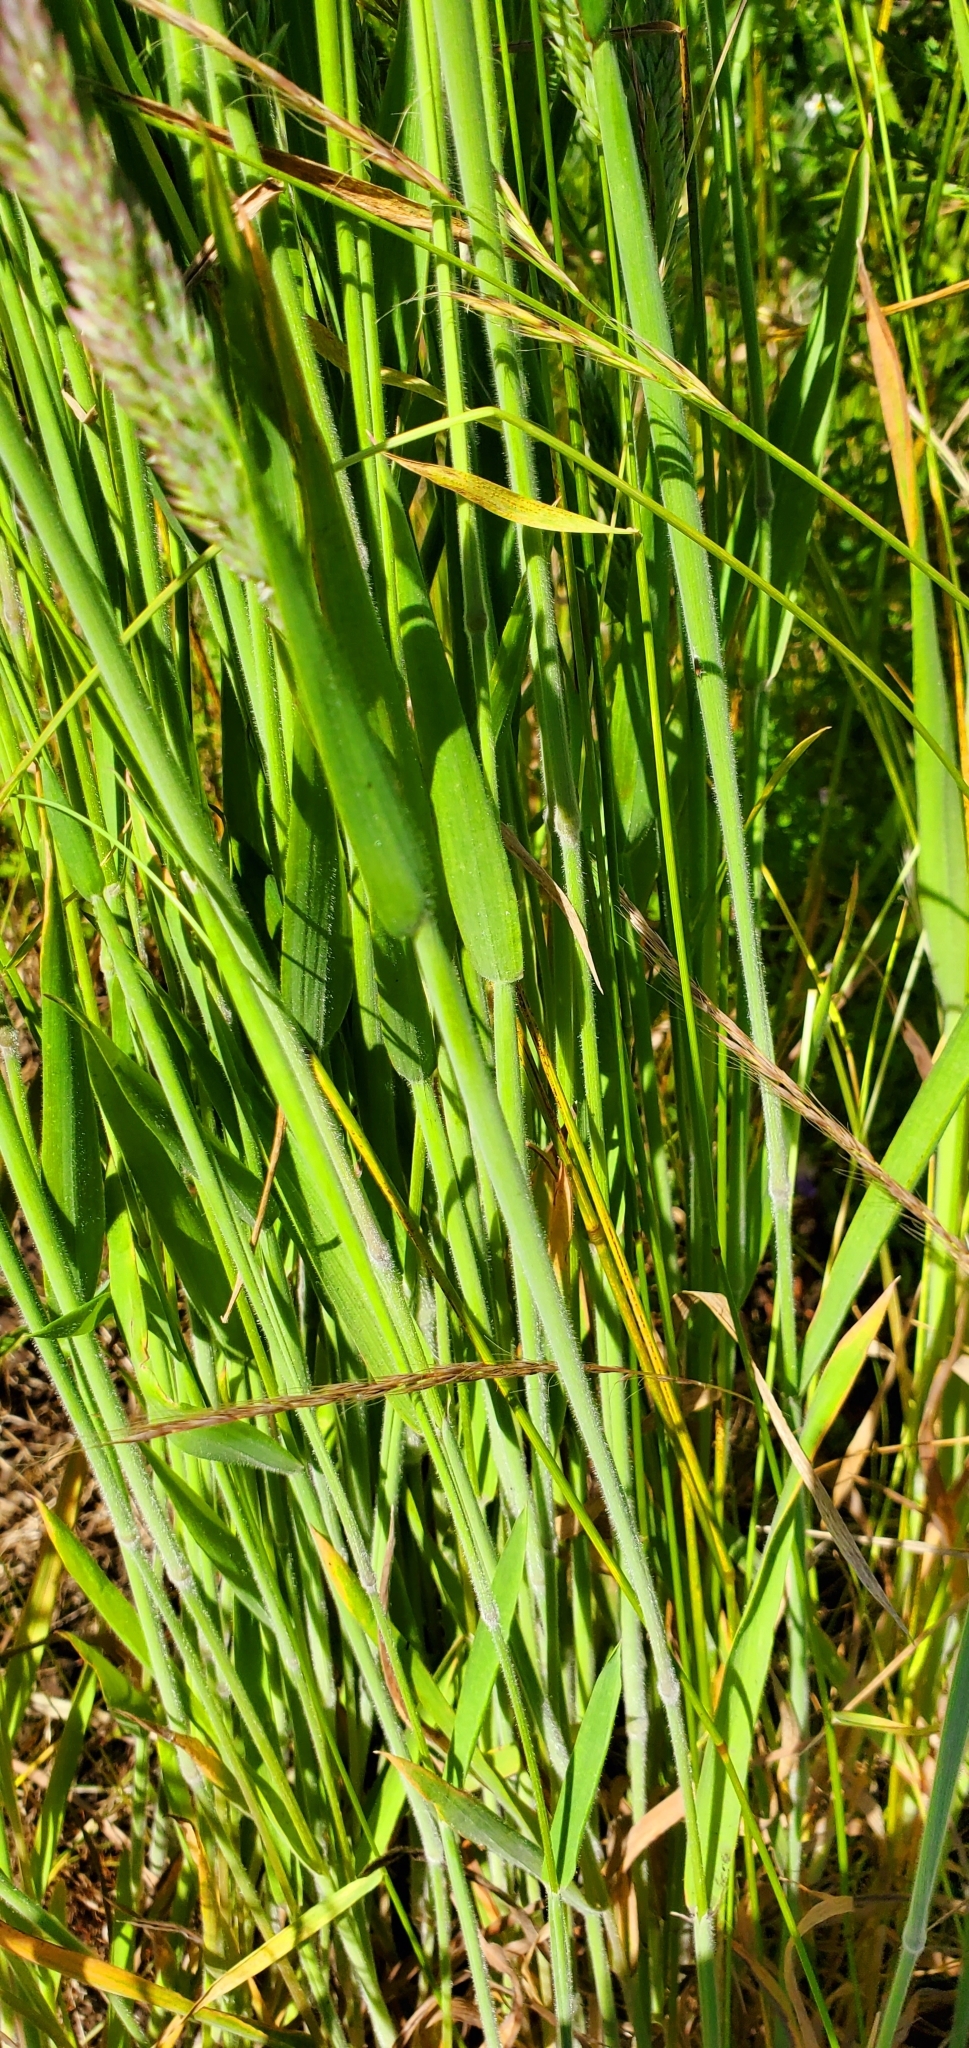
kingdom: Plantae
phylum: Tracheophyta
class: Liliopsida
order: Poales
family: Poaceae
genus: Holcus
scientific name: Holcus lanatus
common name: Yorkshire-fog
